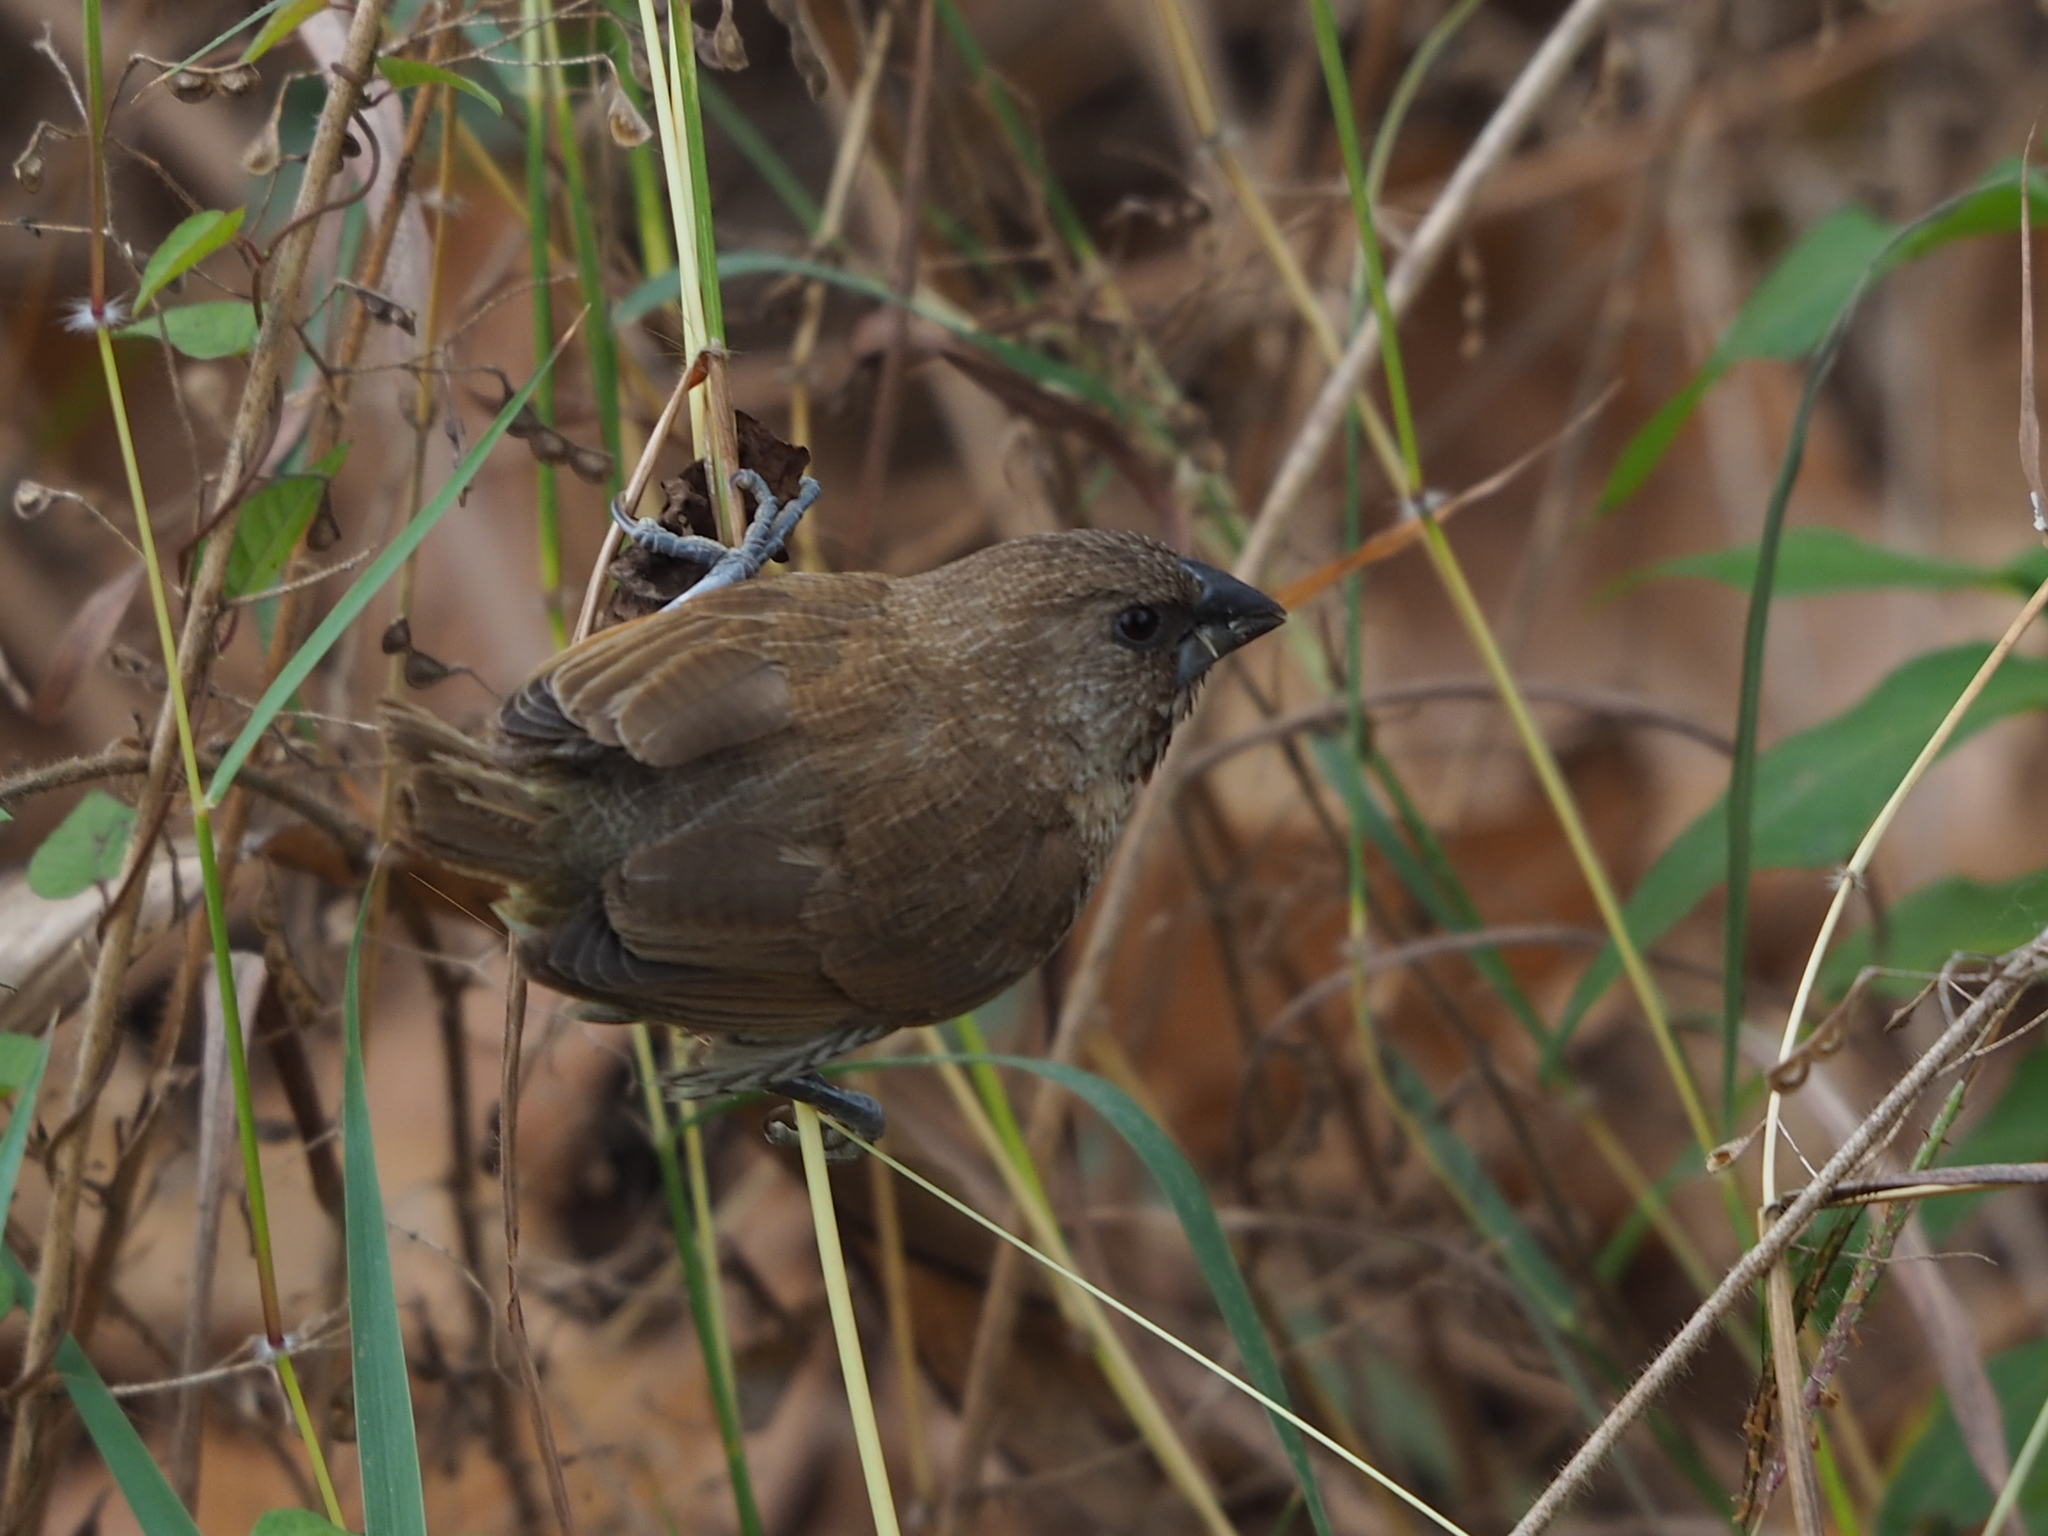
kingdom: Animalia
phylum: Chordata
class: Aves
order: Passeriformes
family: Estrildidae
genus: Lonchura
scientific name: Lonchura punctulata
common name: Scaly-breasted munia
